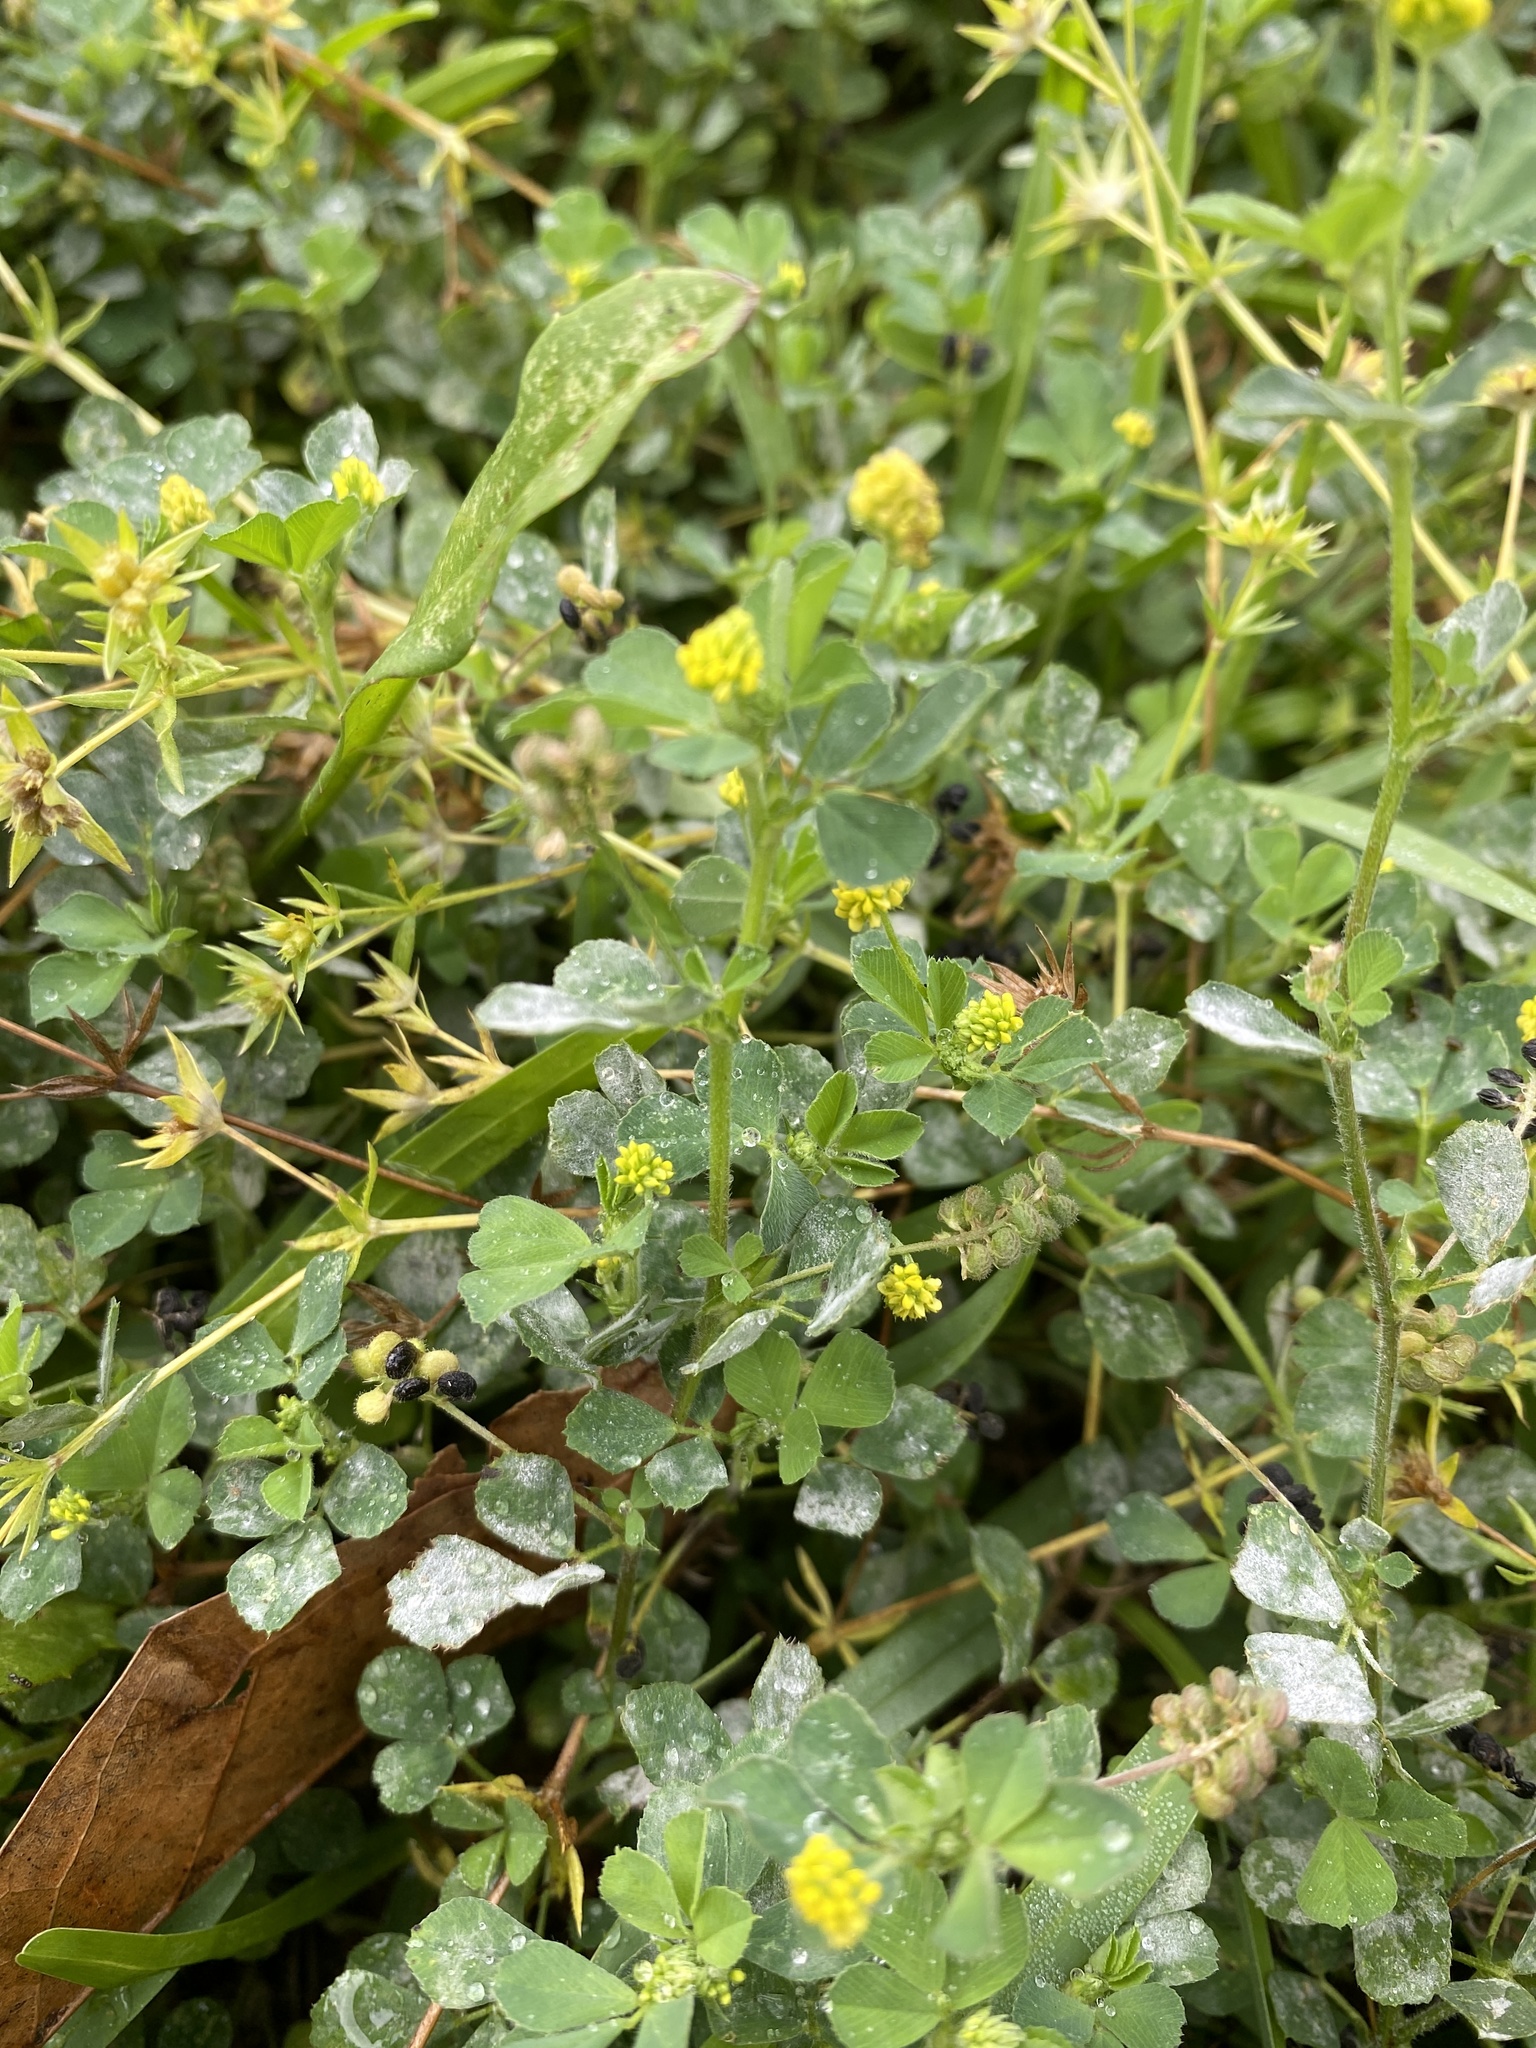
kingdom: Plantae
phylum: Tracheophyta
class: Magnoliopsida
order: Fabales
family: Fabaceae
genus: Medicago
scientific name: Medicago lupulina
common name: Black medick
